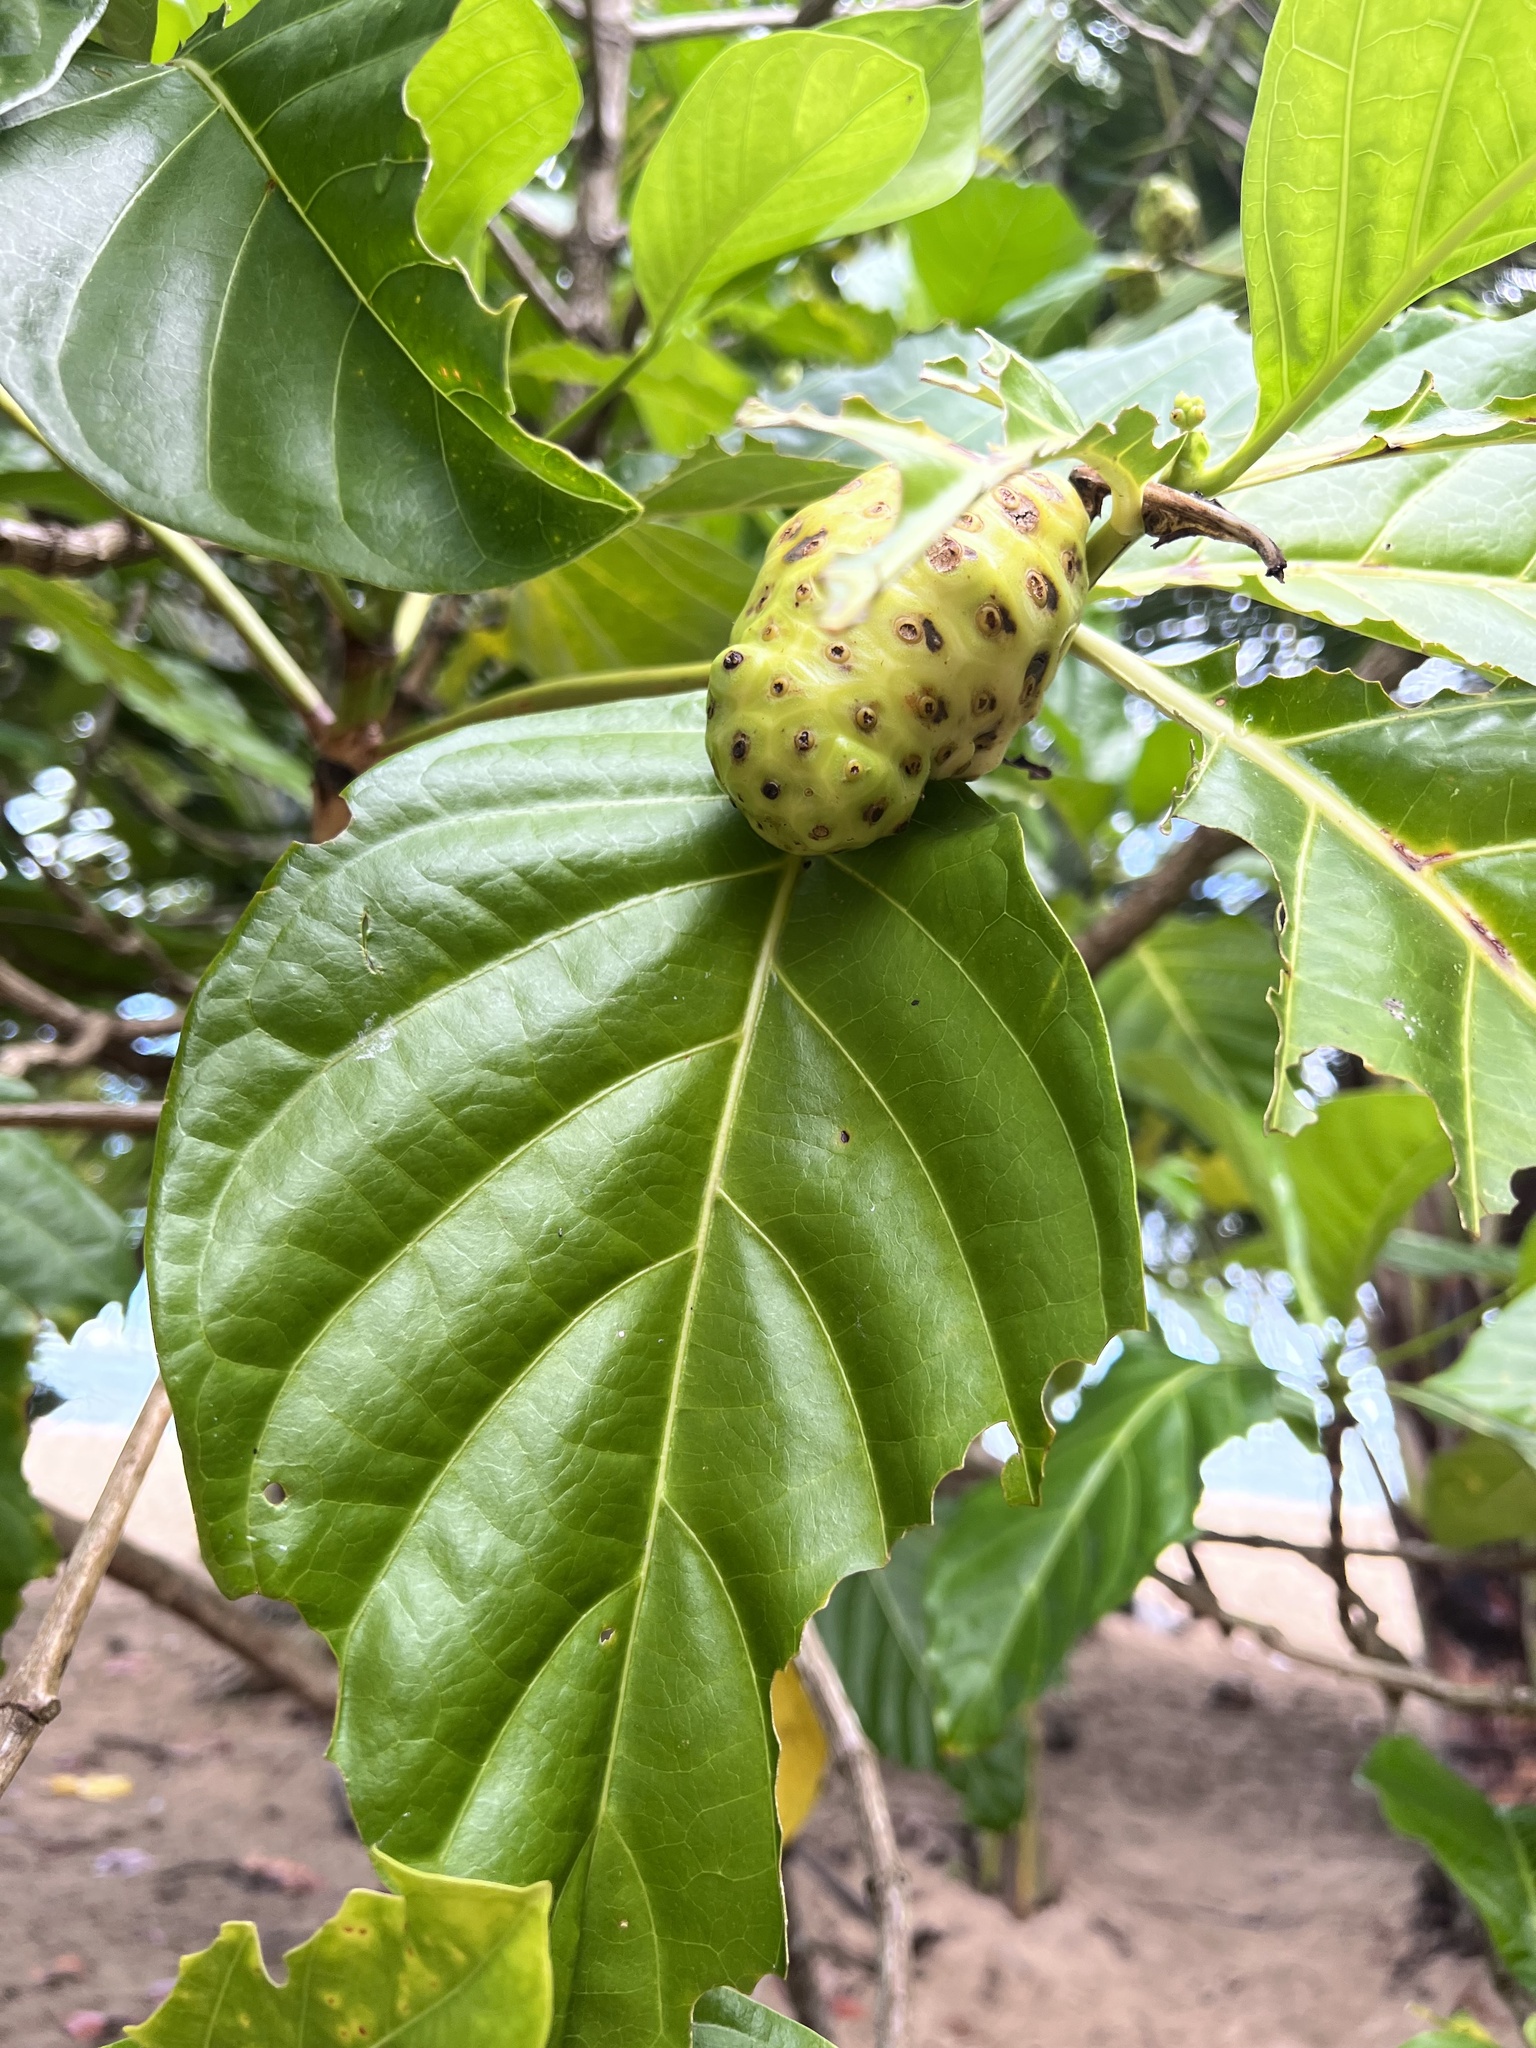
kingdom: Plantae
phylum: Tracheophyta
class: Magnoliopsida
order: Gentianales
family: Rubiaceae
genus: Morinda
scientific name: Morinda citrifolia
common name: Indian-mulberry
